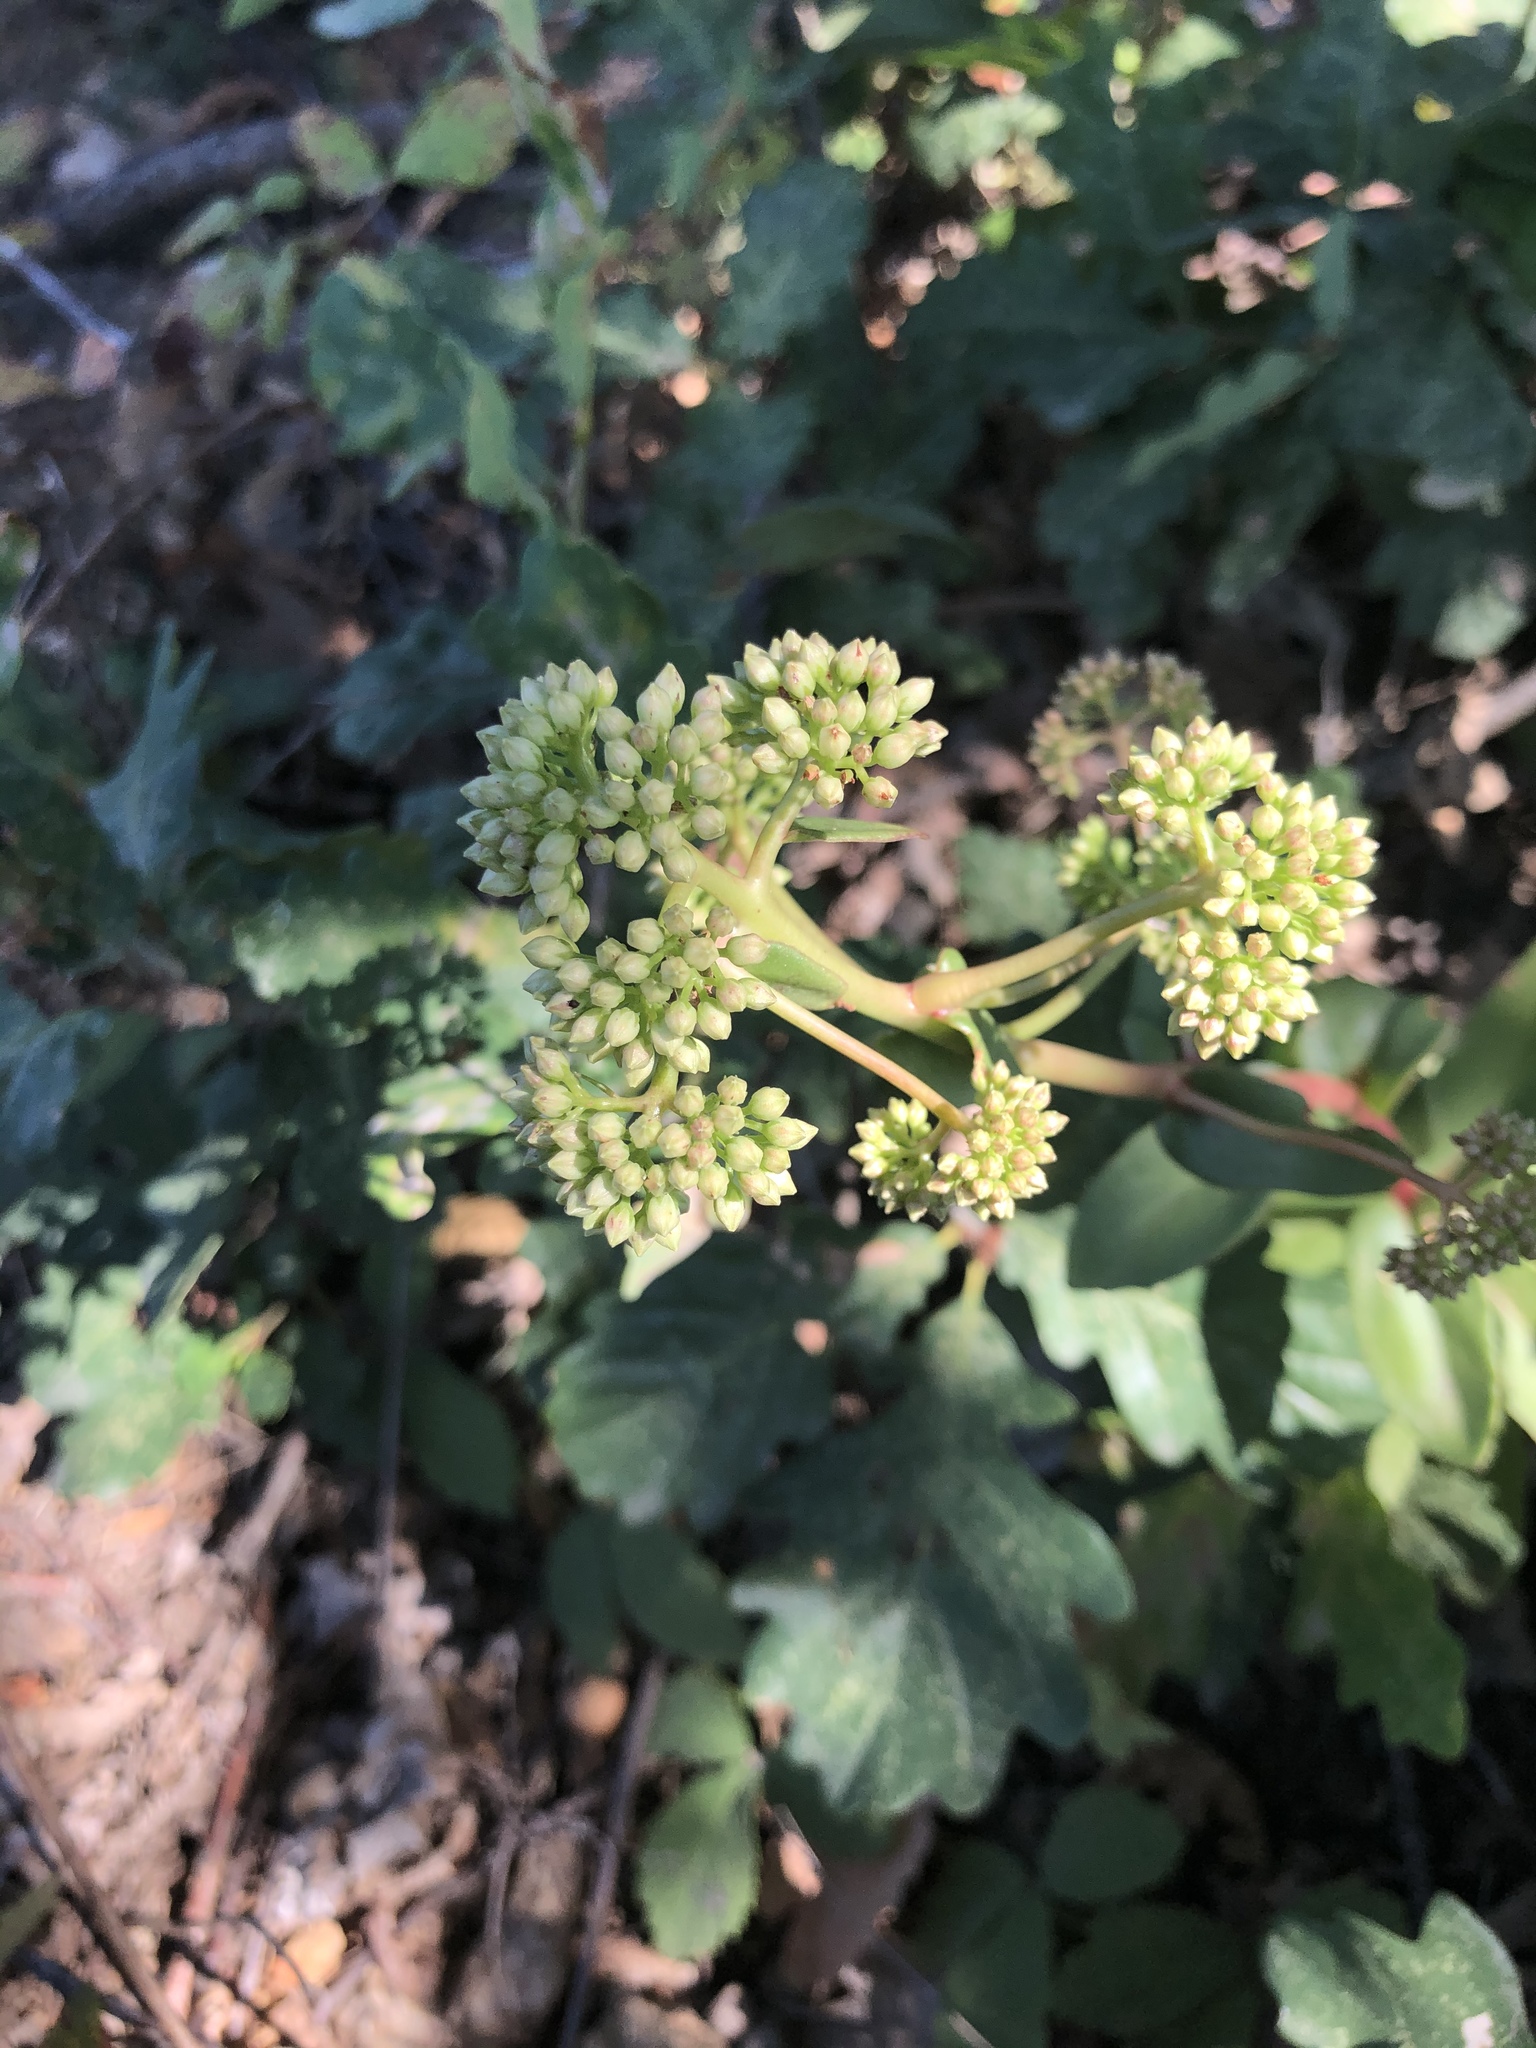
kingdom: Plantae
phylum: Tracheophyta
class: Magnoliopsida
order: Saxifragales
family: Crassulaceae
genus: Hylotelephium
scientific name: Hylotelephium maximum
